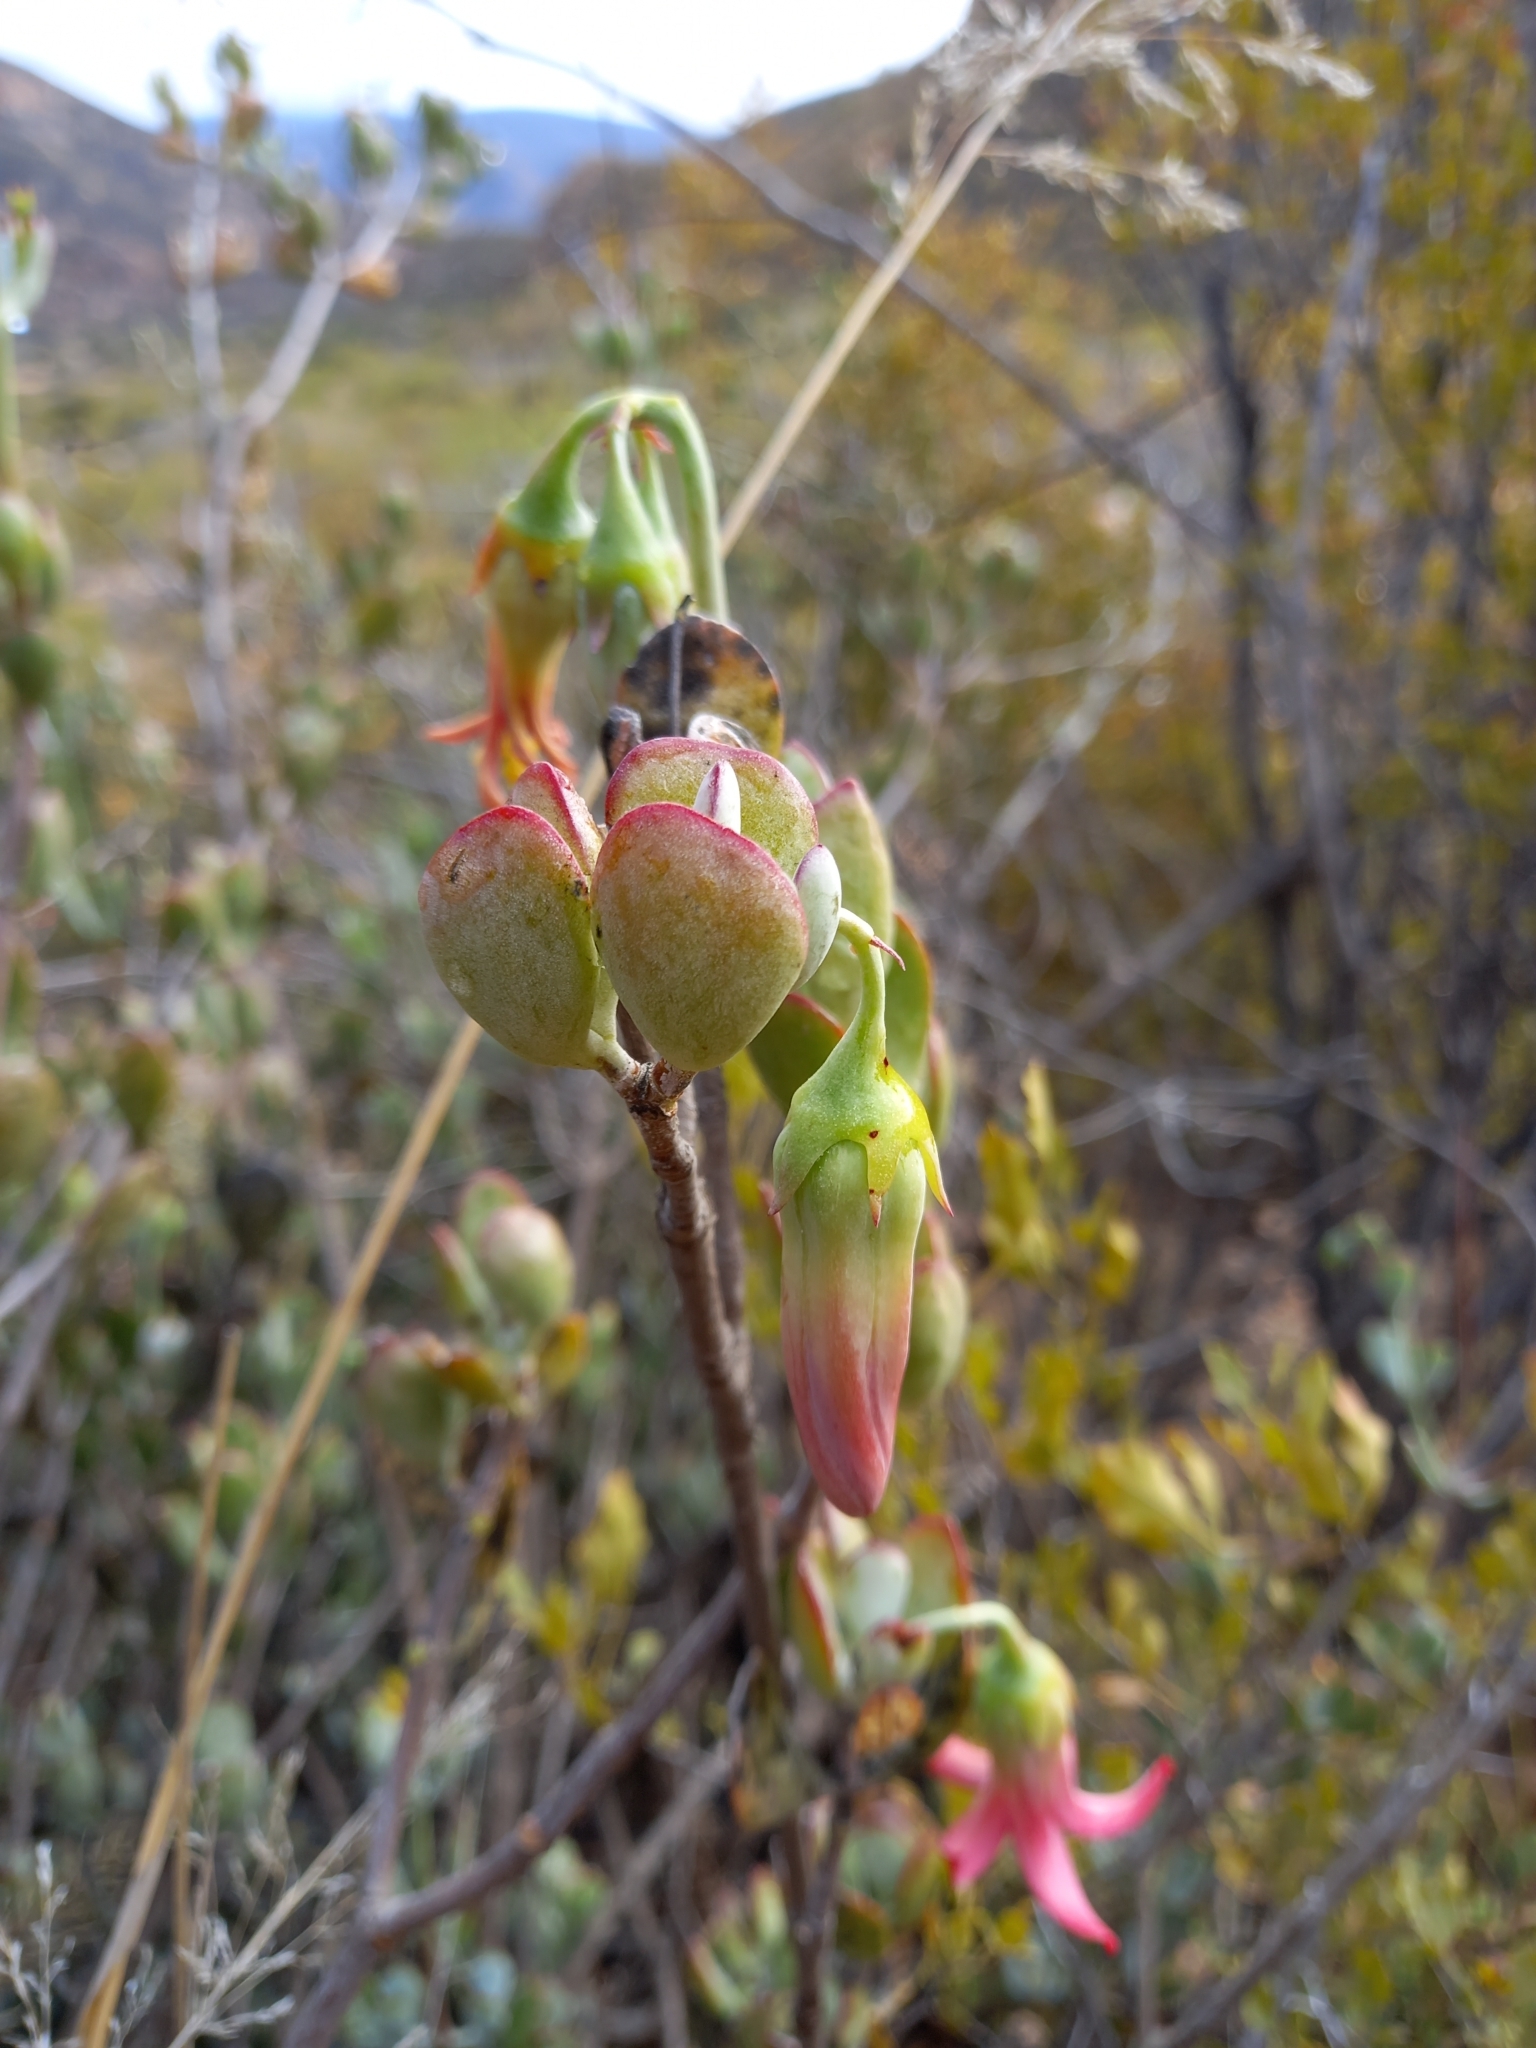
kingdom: Plantae
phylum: Tracheophyta
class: Magnoliopsida
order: Saxifragales
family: Crassulaceae
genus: Cotyledon
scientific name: Cotyledon woodii
